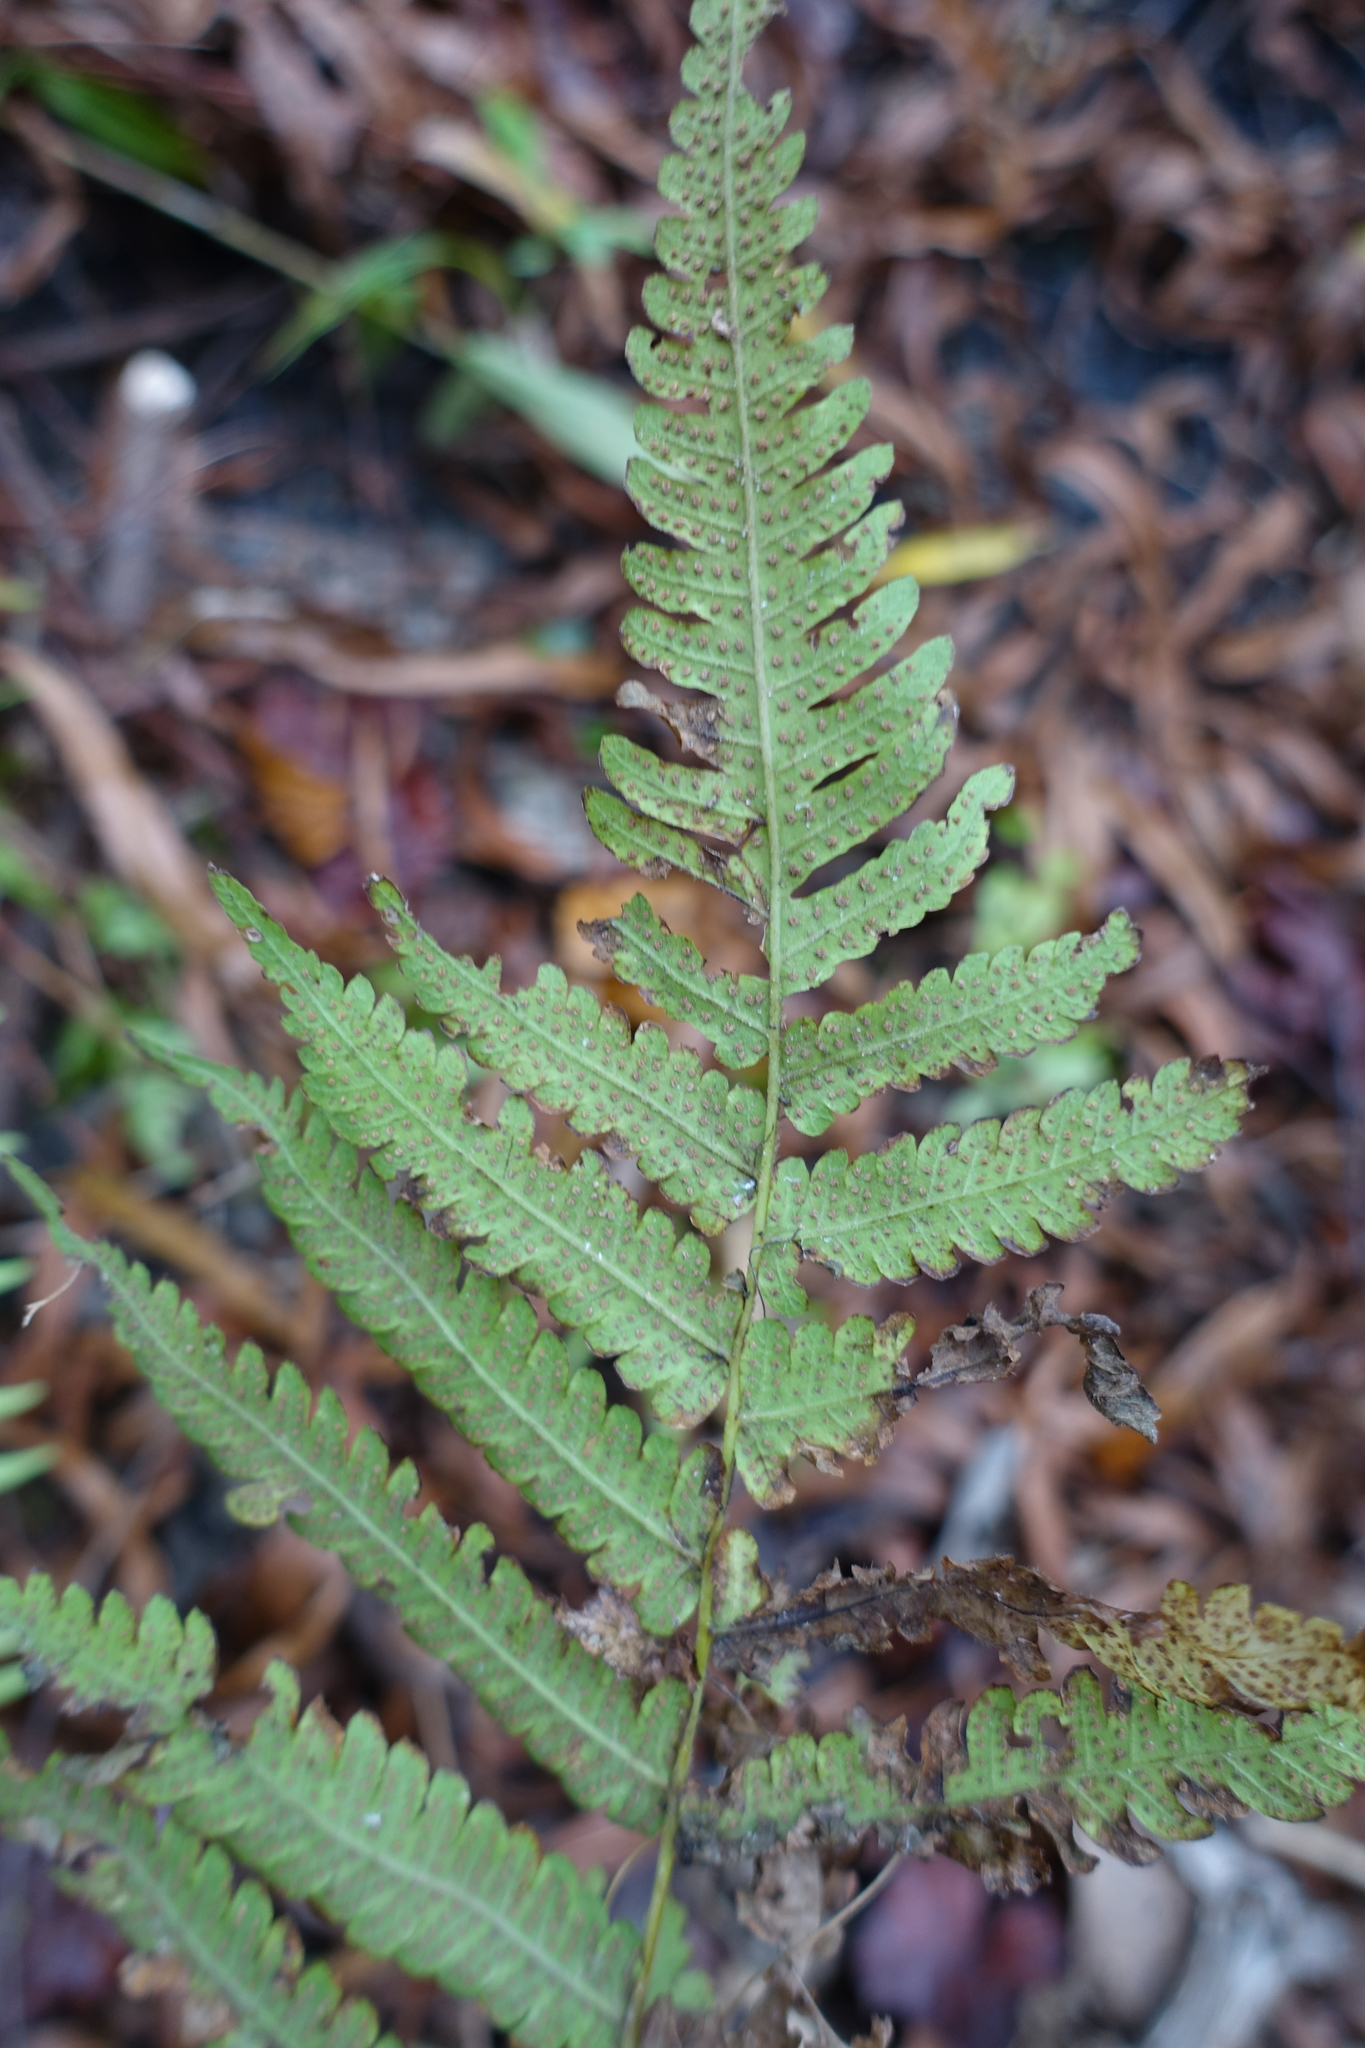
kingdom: Plantae
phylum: Tracheophyta
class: Polypodiopsida
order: Polypodiales
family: Thelypteridaceae
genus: Christella
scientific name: Christella dentata
